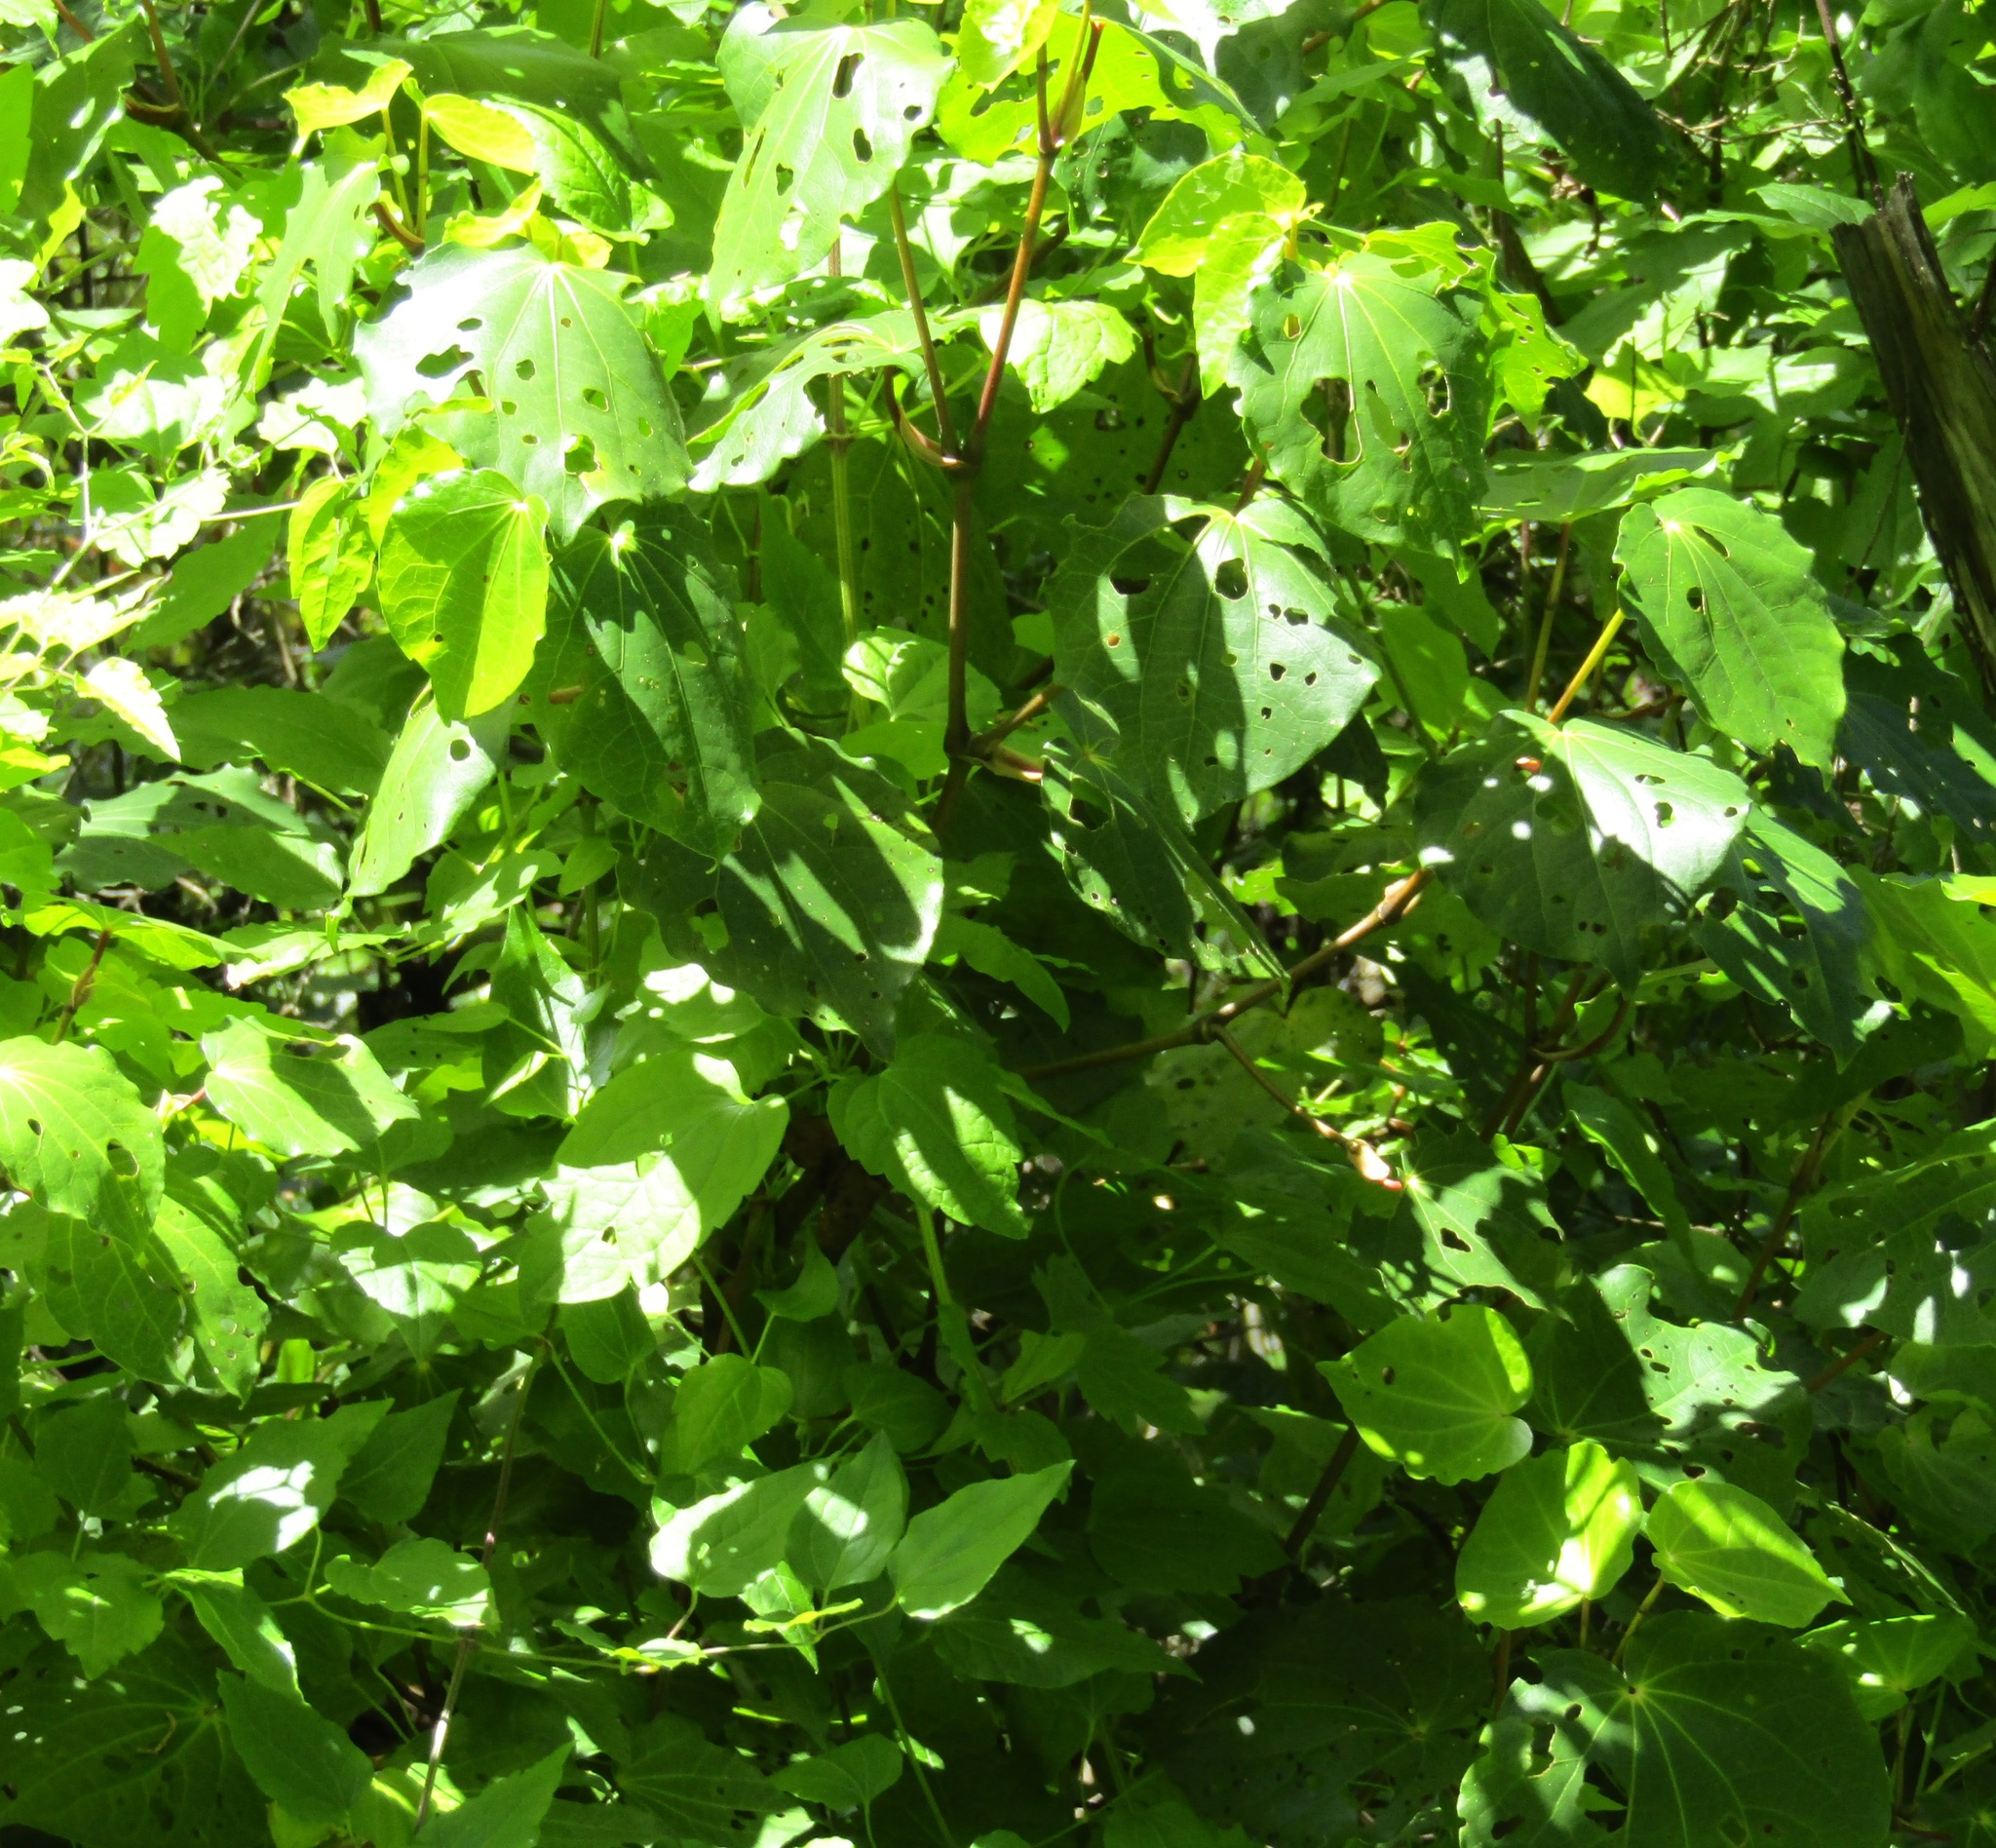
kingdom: Plantae
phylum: Tracheophyta
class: Magnoliopsida
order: Ranunculales
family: Ranunculaceae
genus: Clematis
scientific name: Clematis vitalba
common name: Evergreen clematis
